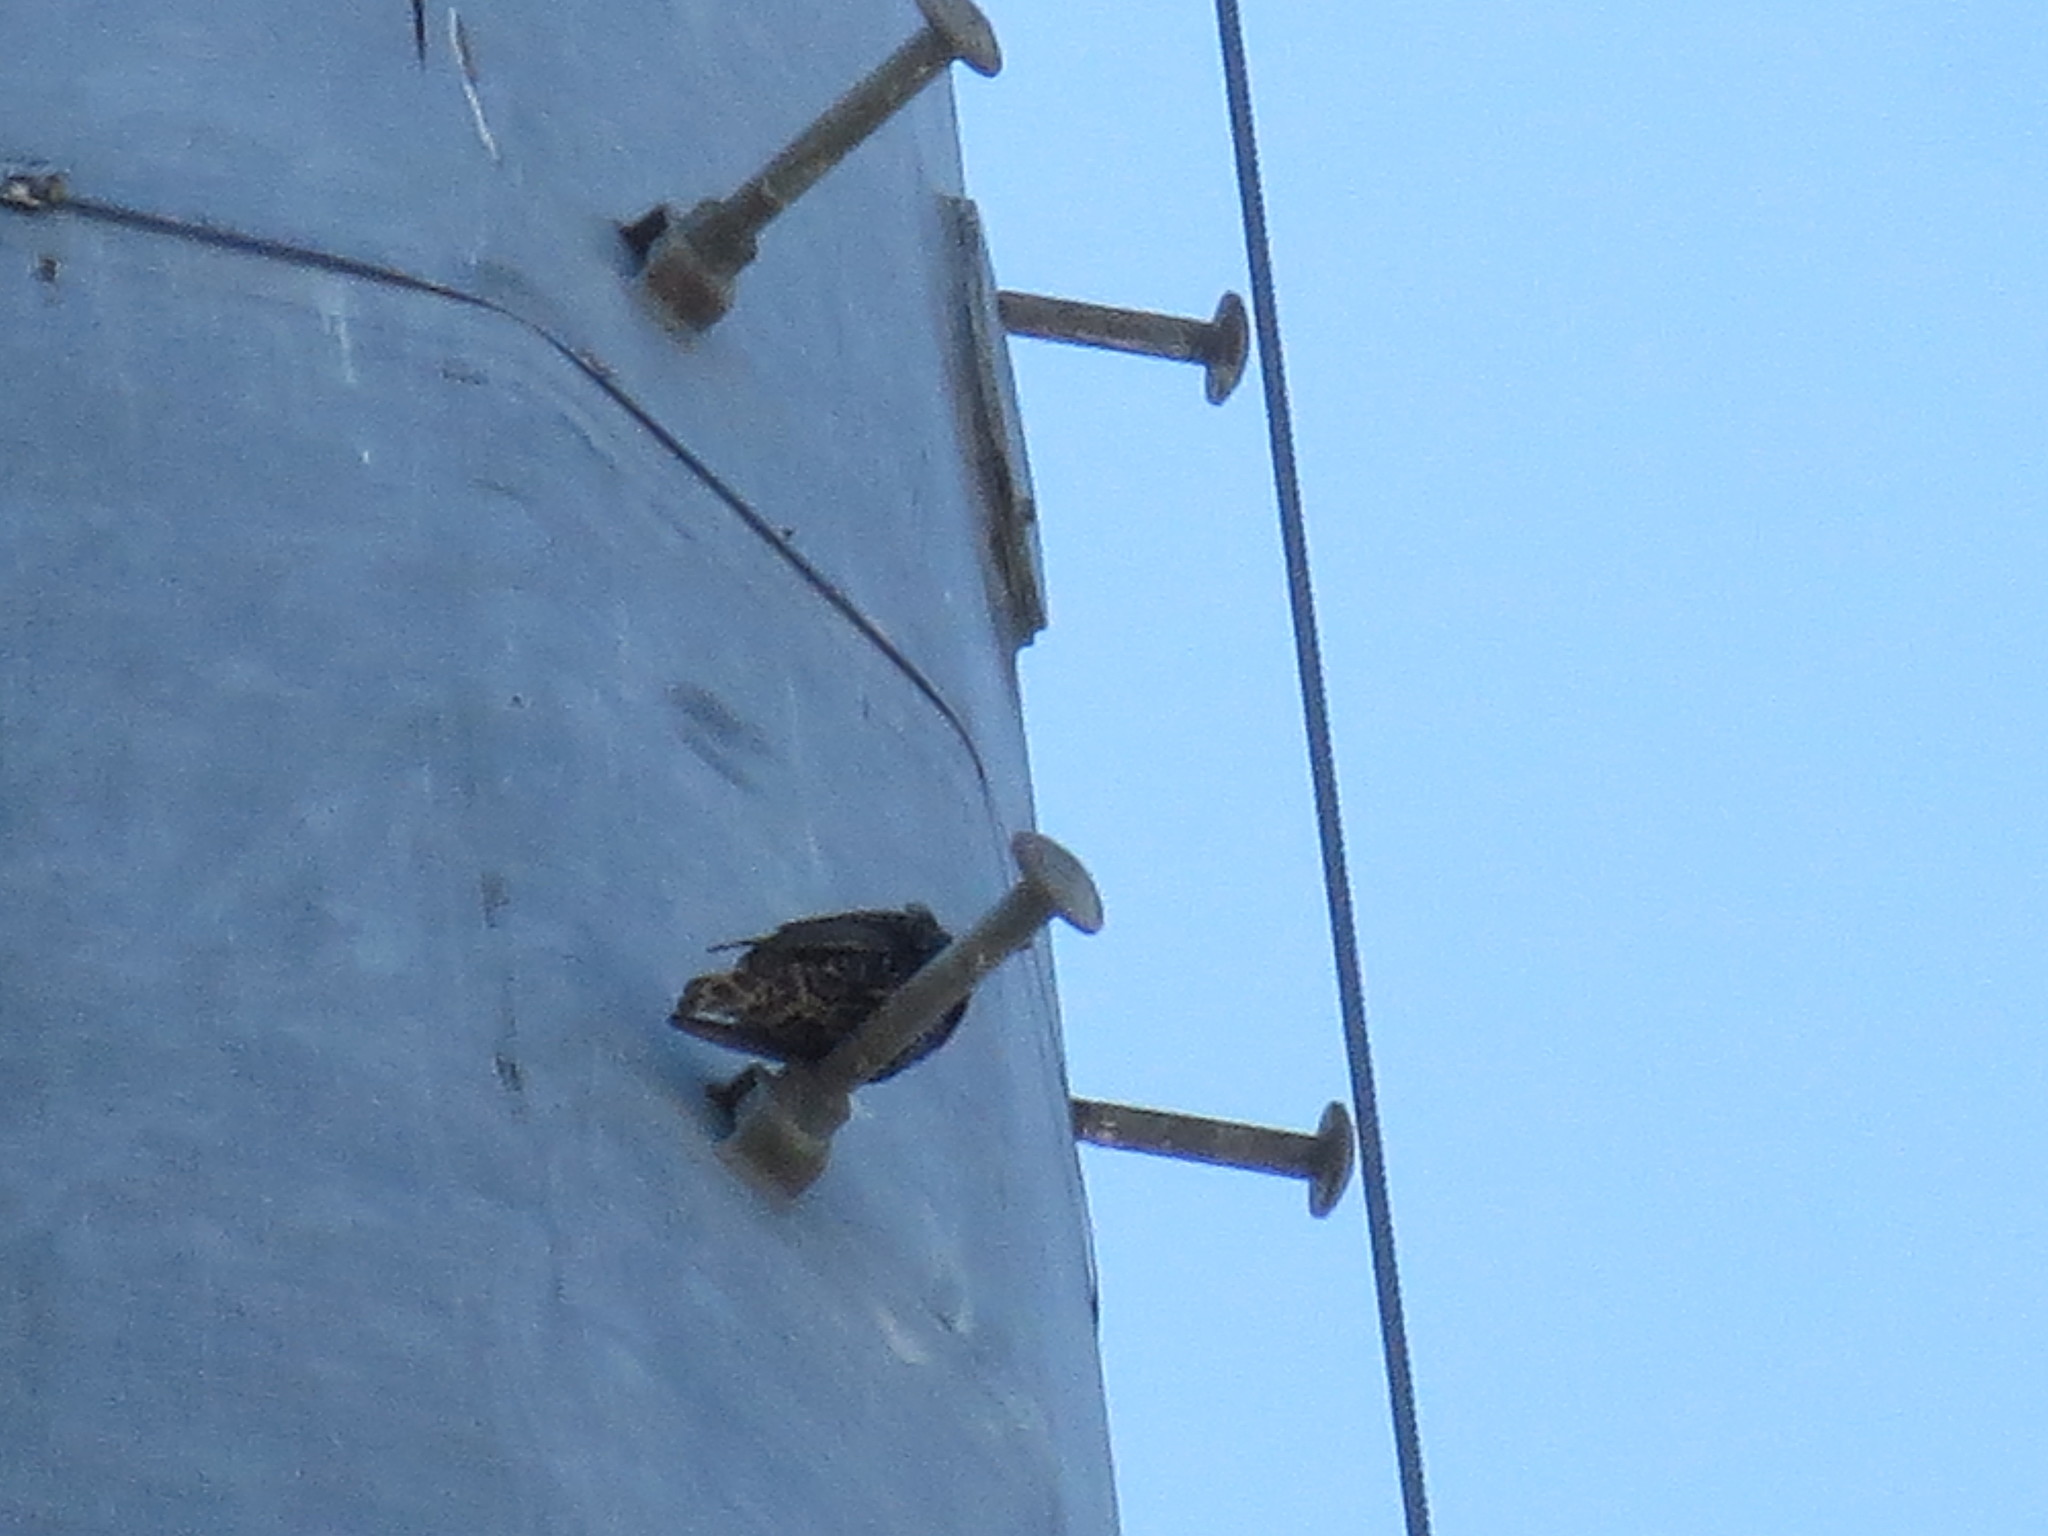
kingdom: Animalia
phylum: Chordata
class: Aves
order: Passeriformes
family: Sturnidae
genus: Sturnus
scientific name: Sturnus vulgaris
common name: Common starling
